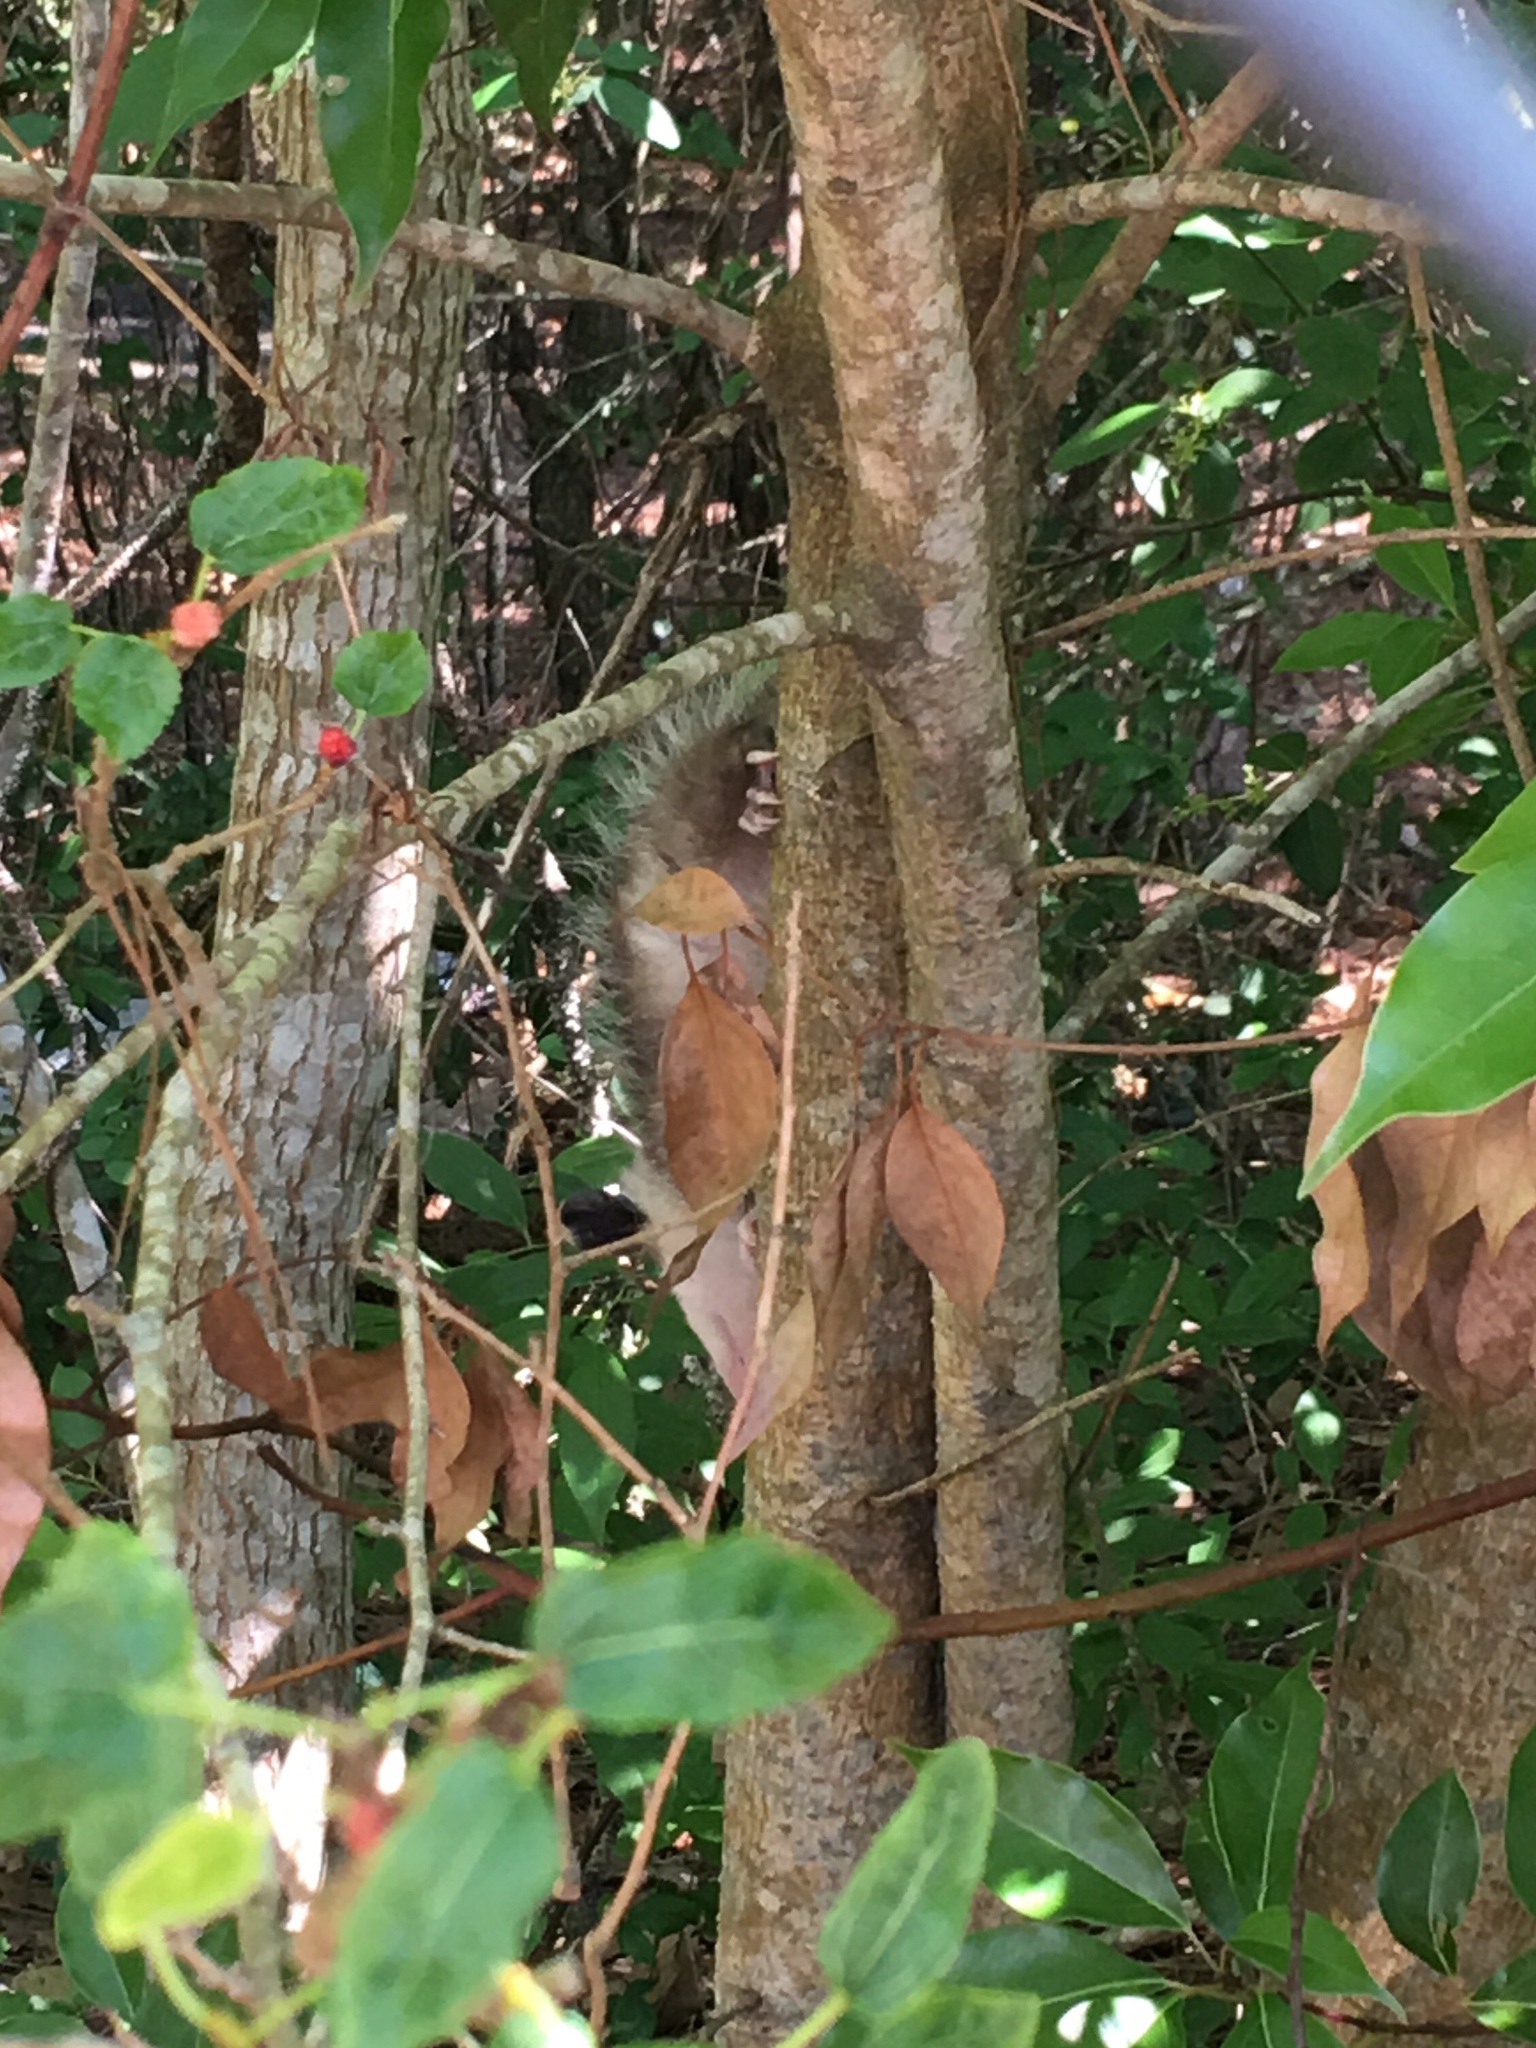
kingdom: Animalia
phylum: Chordata
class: Mammalia
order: Didelphimorphia
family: Didelphidae
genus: Didelphis
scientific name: Didelphis virginiana
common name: Virginia opossum
